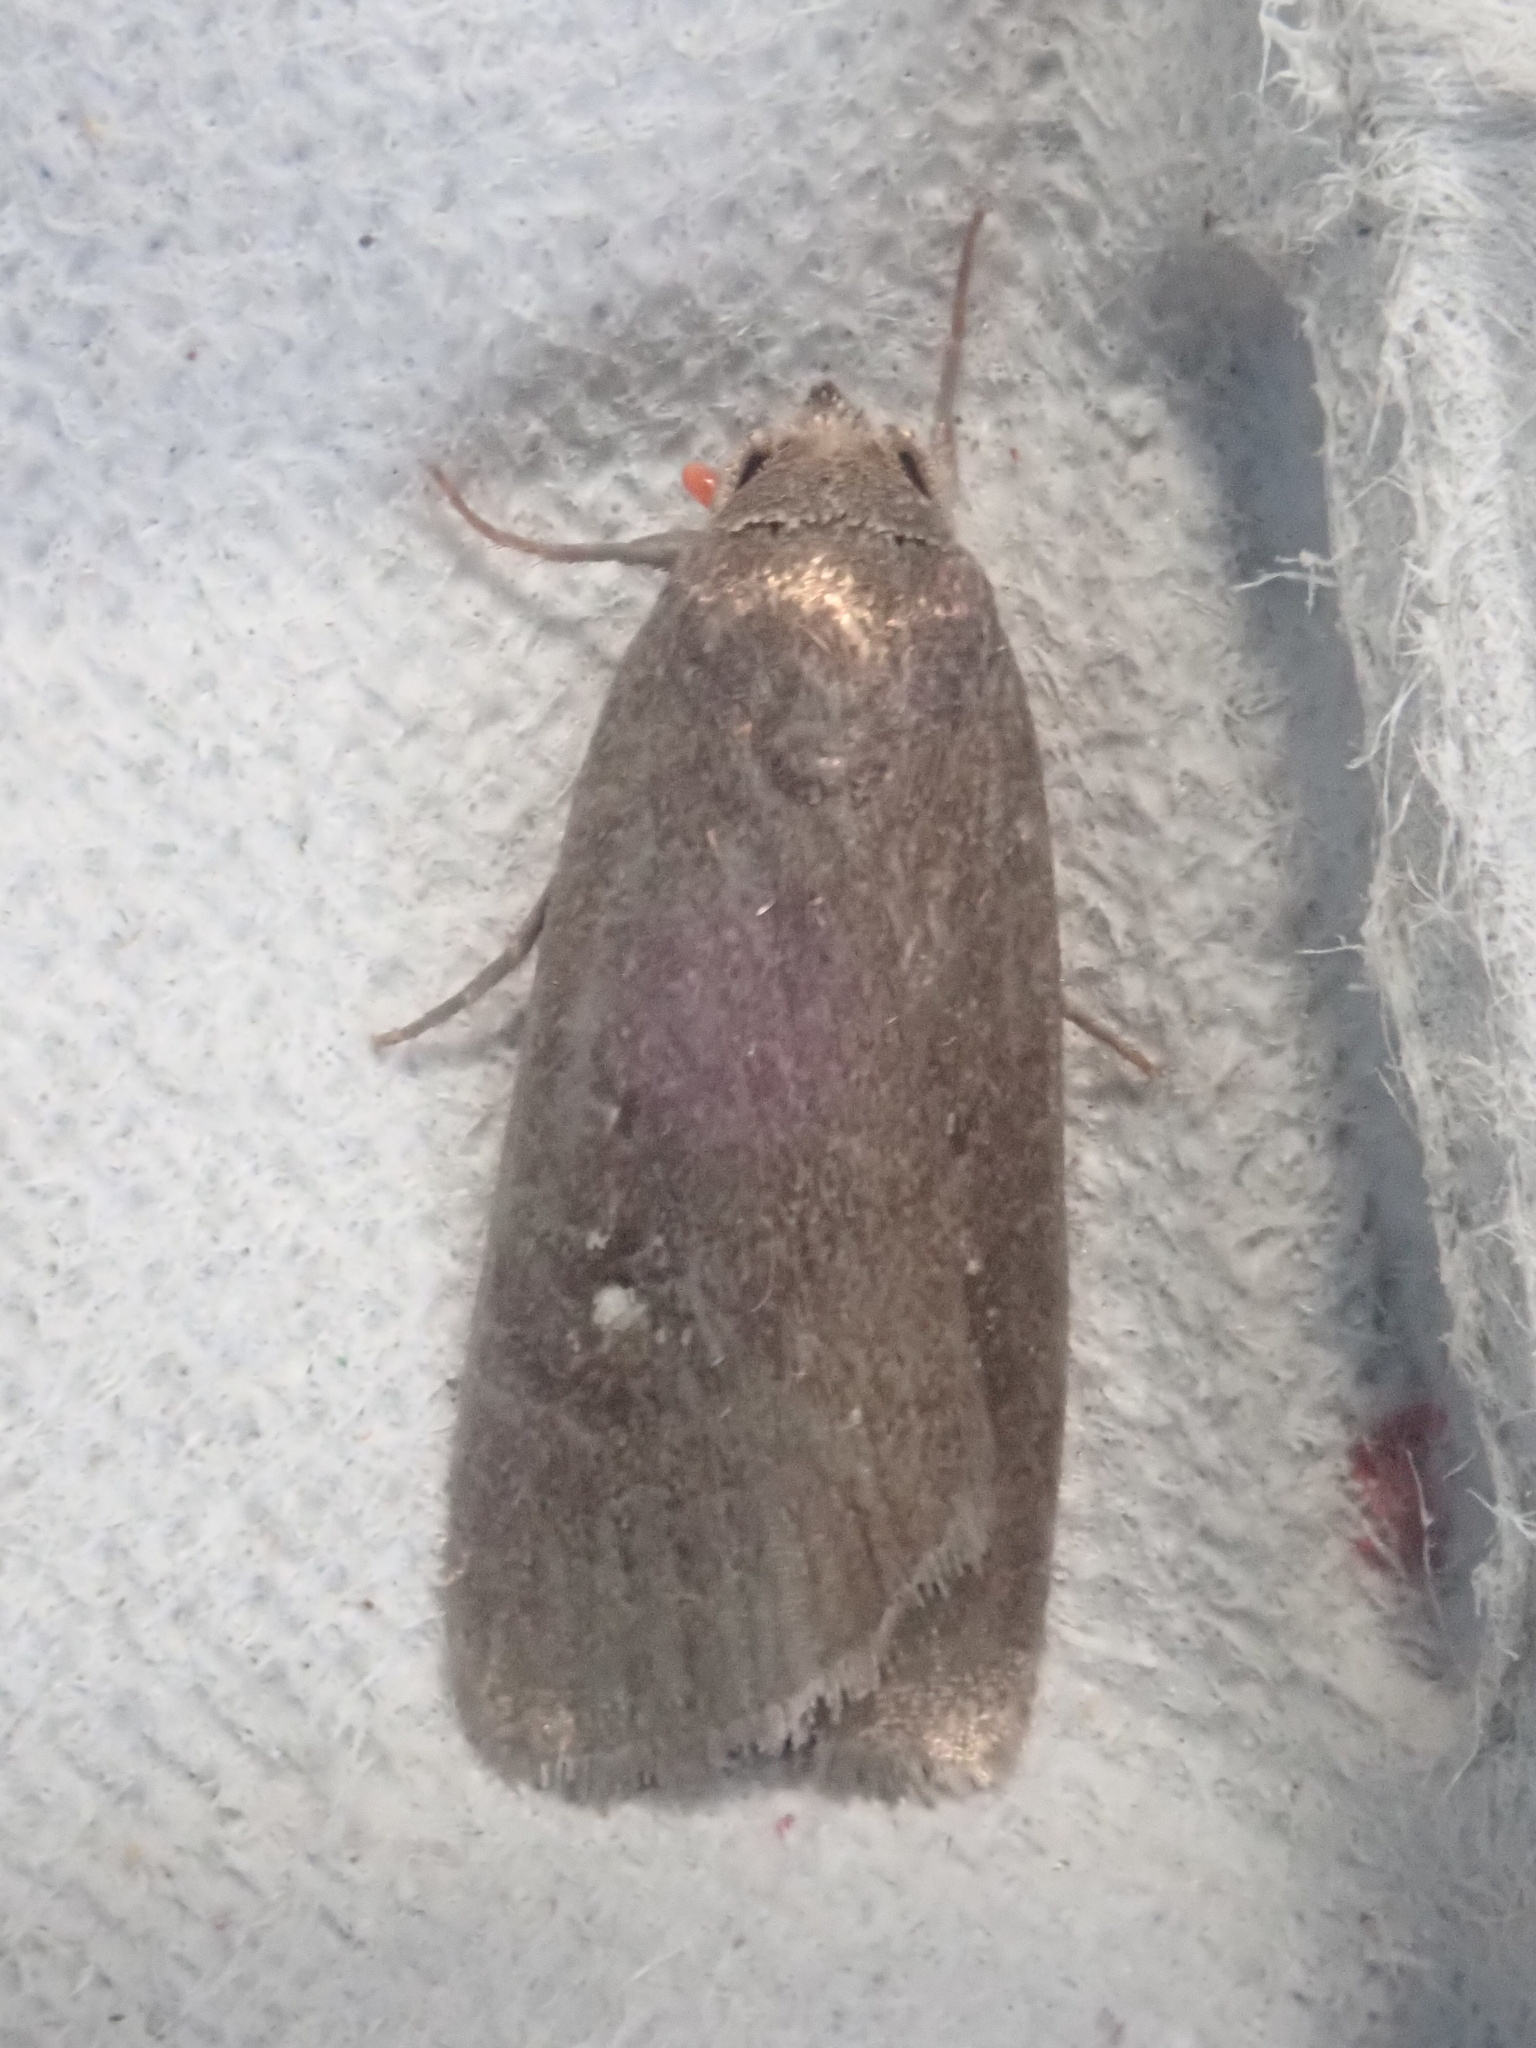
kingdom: Animalia
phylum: Arthropoda
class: Insecta
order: Lepidoptera
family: Noctuidae
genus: Proxenus
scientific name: Proxenus miranda
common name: Miranda moth
